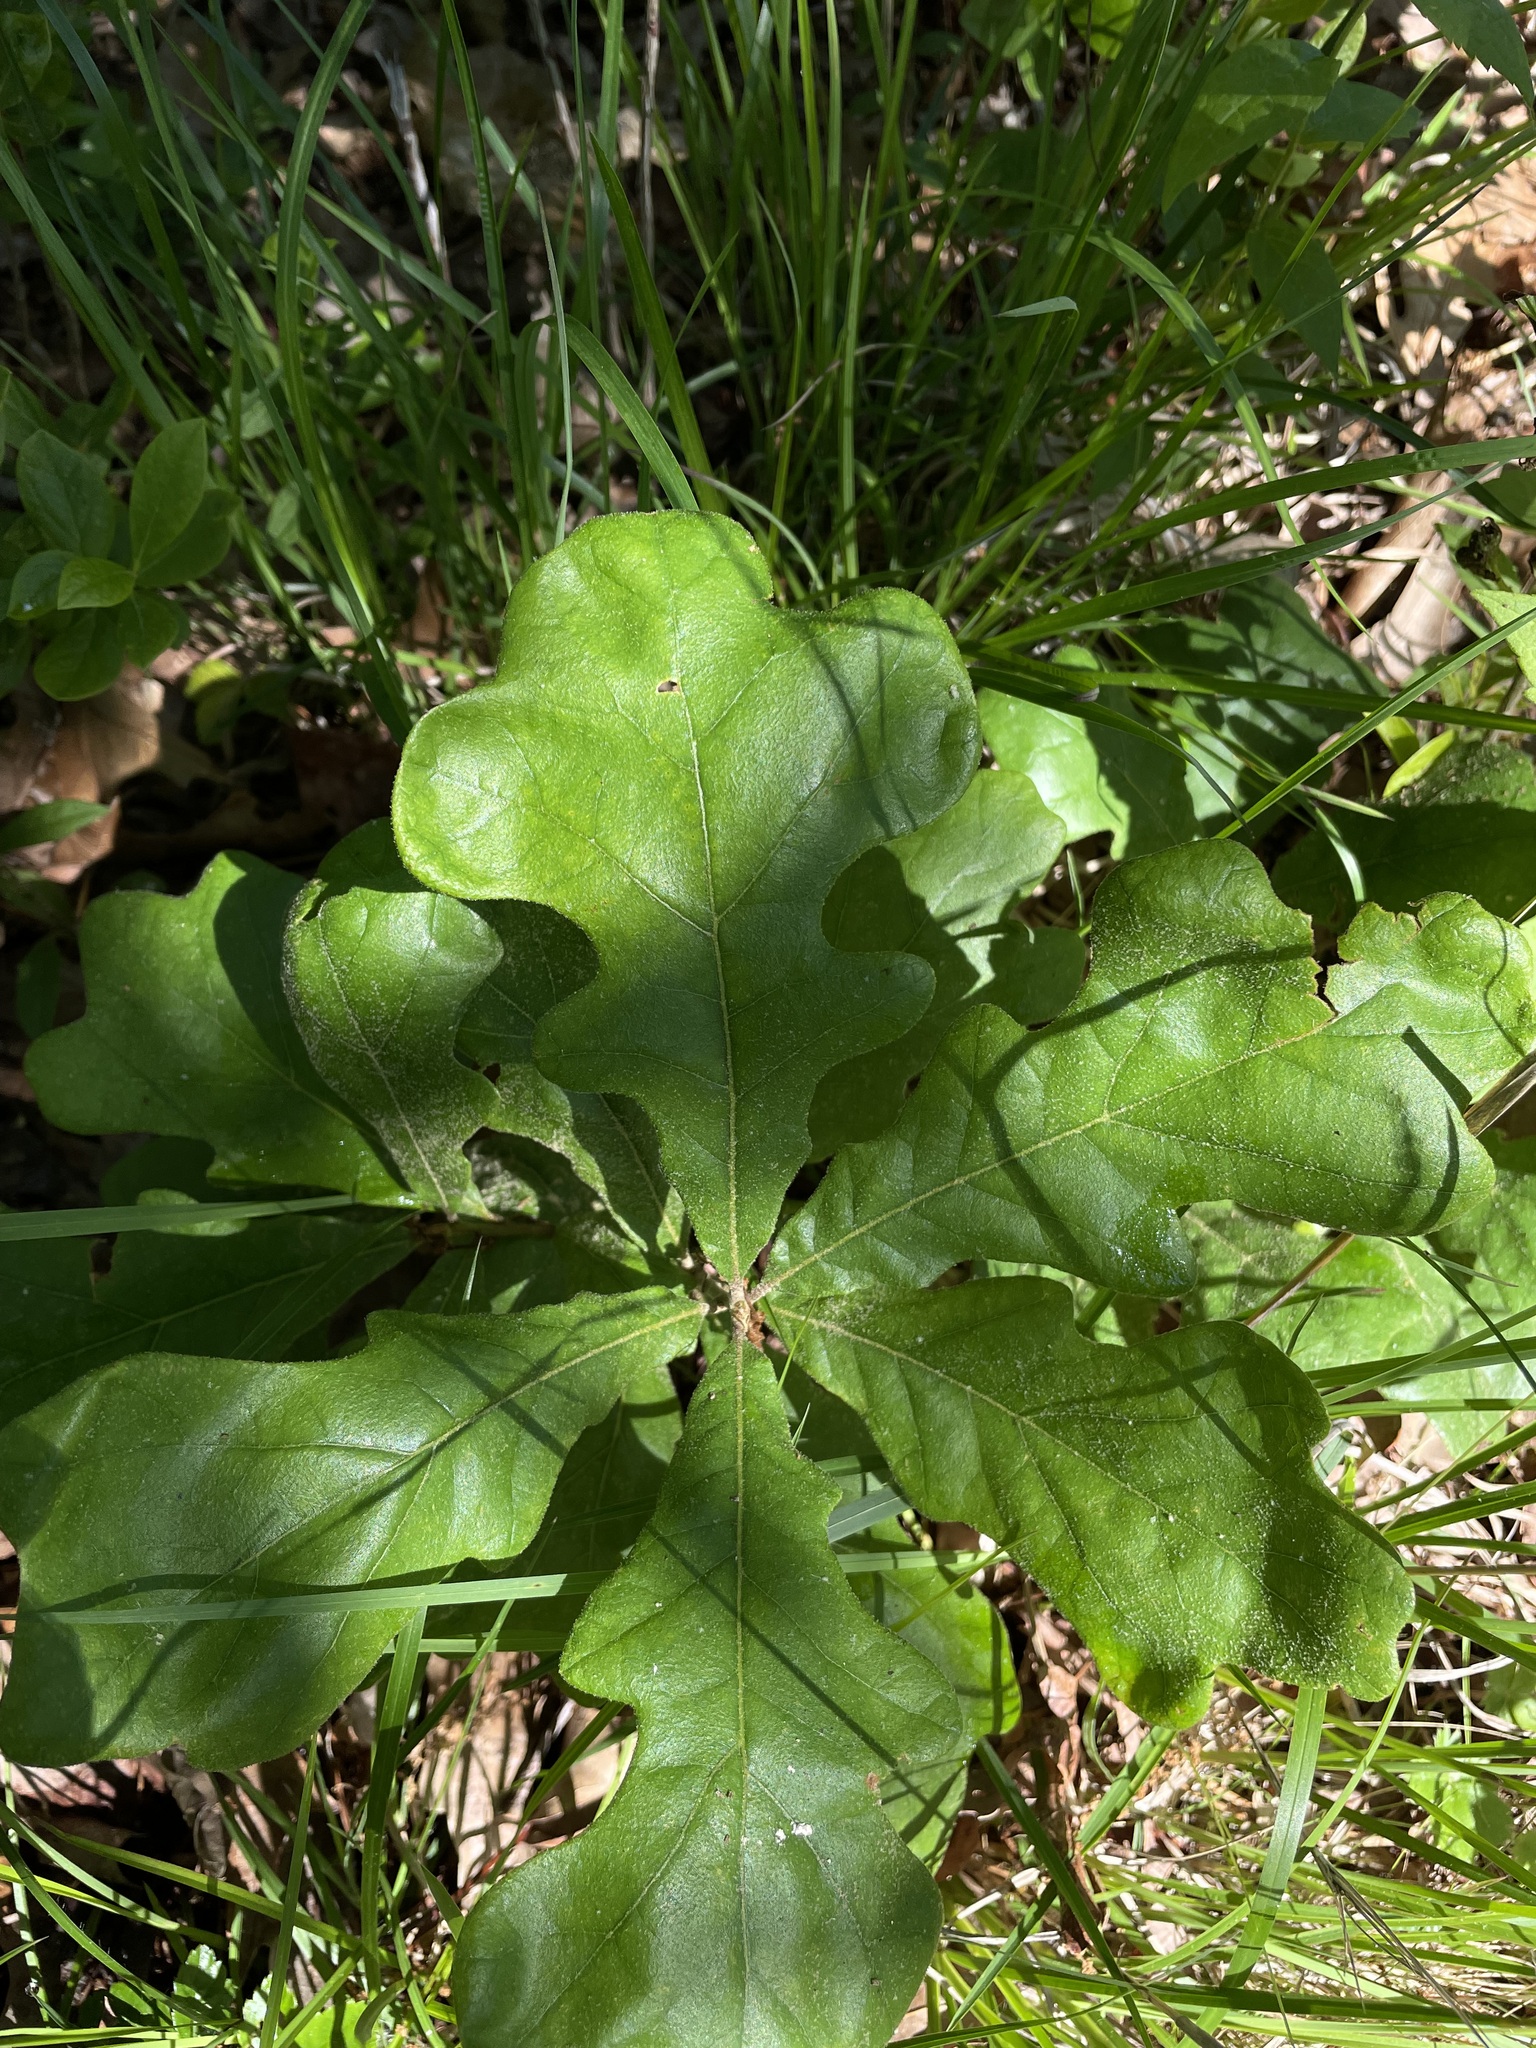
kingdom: Plantae
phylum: Tracheophyta
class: Magnoliopsida
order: Fagales
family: Fagaceae
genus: Quercus
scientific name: Quercus stellata
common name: Post oak
